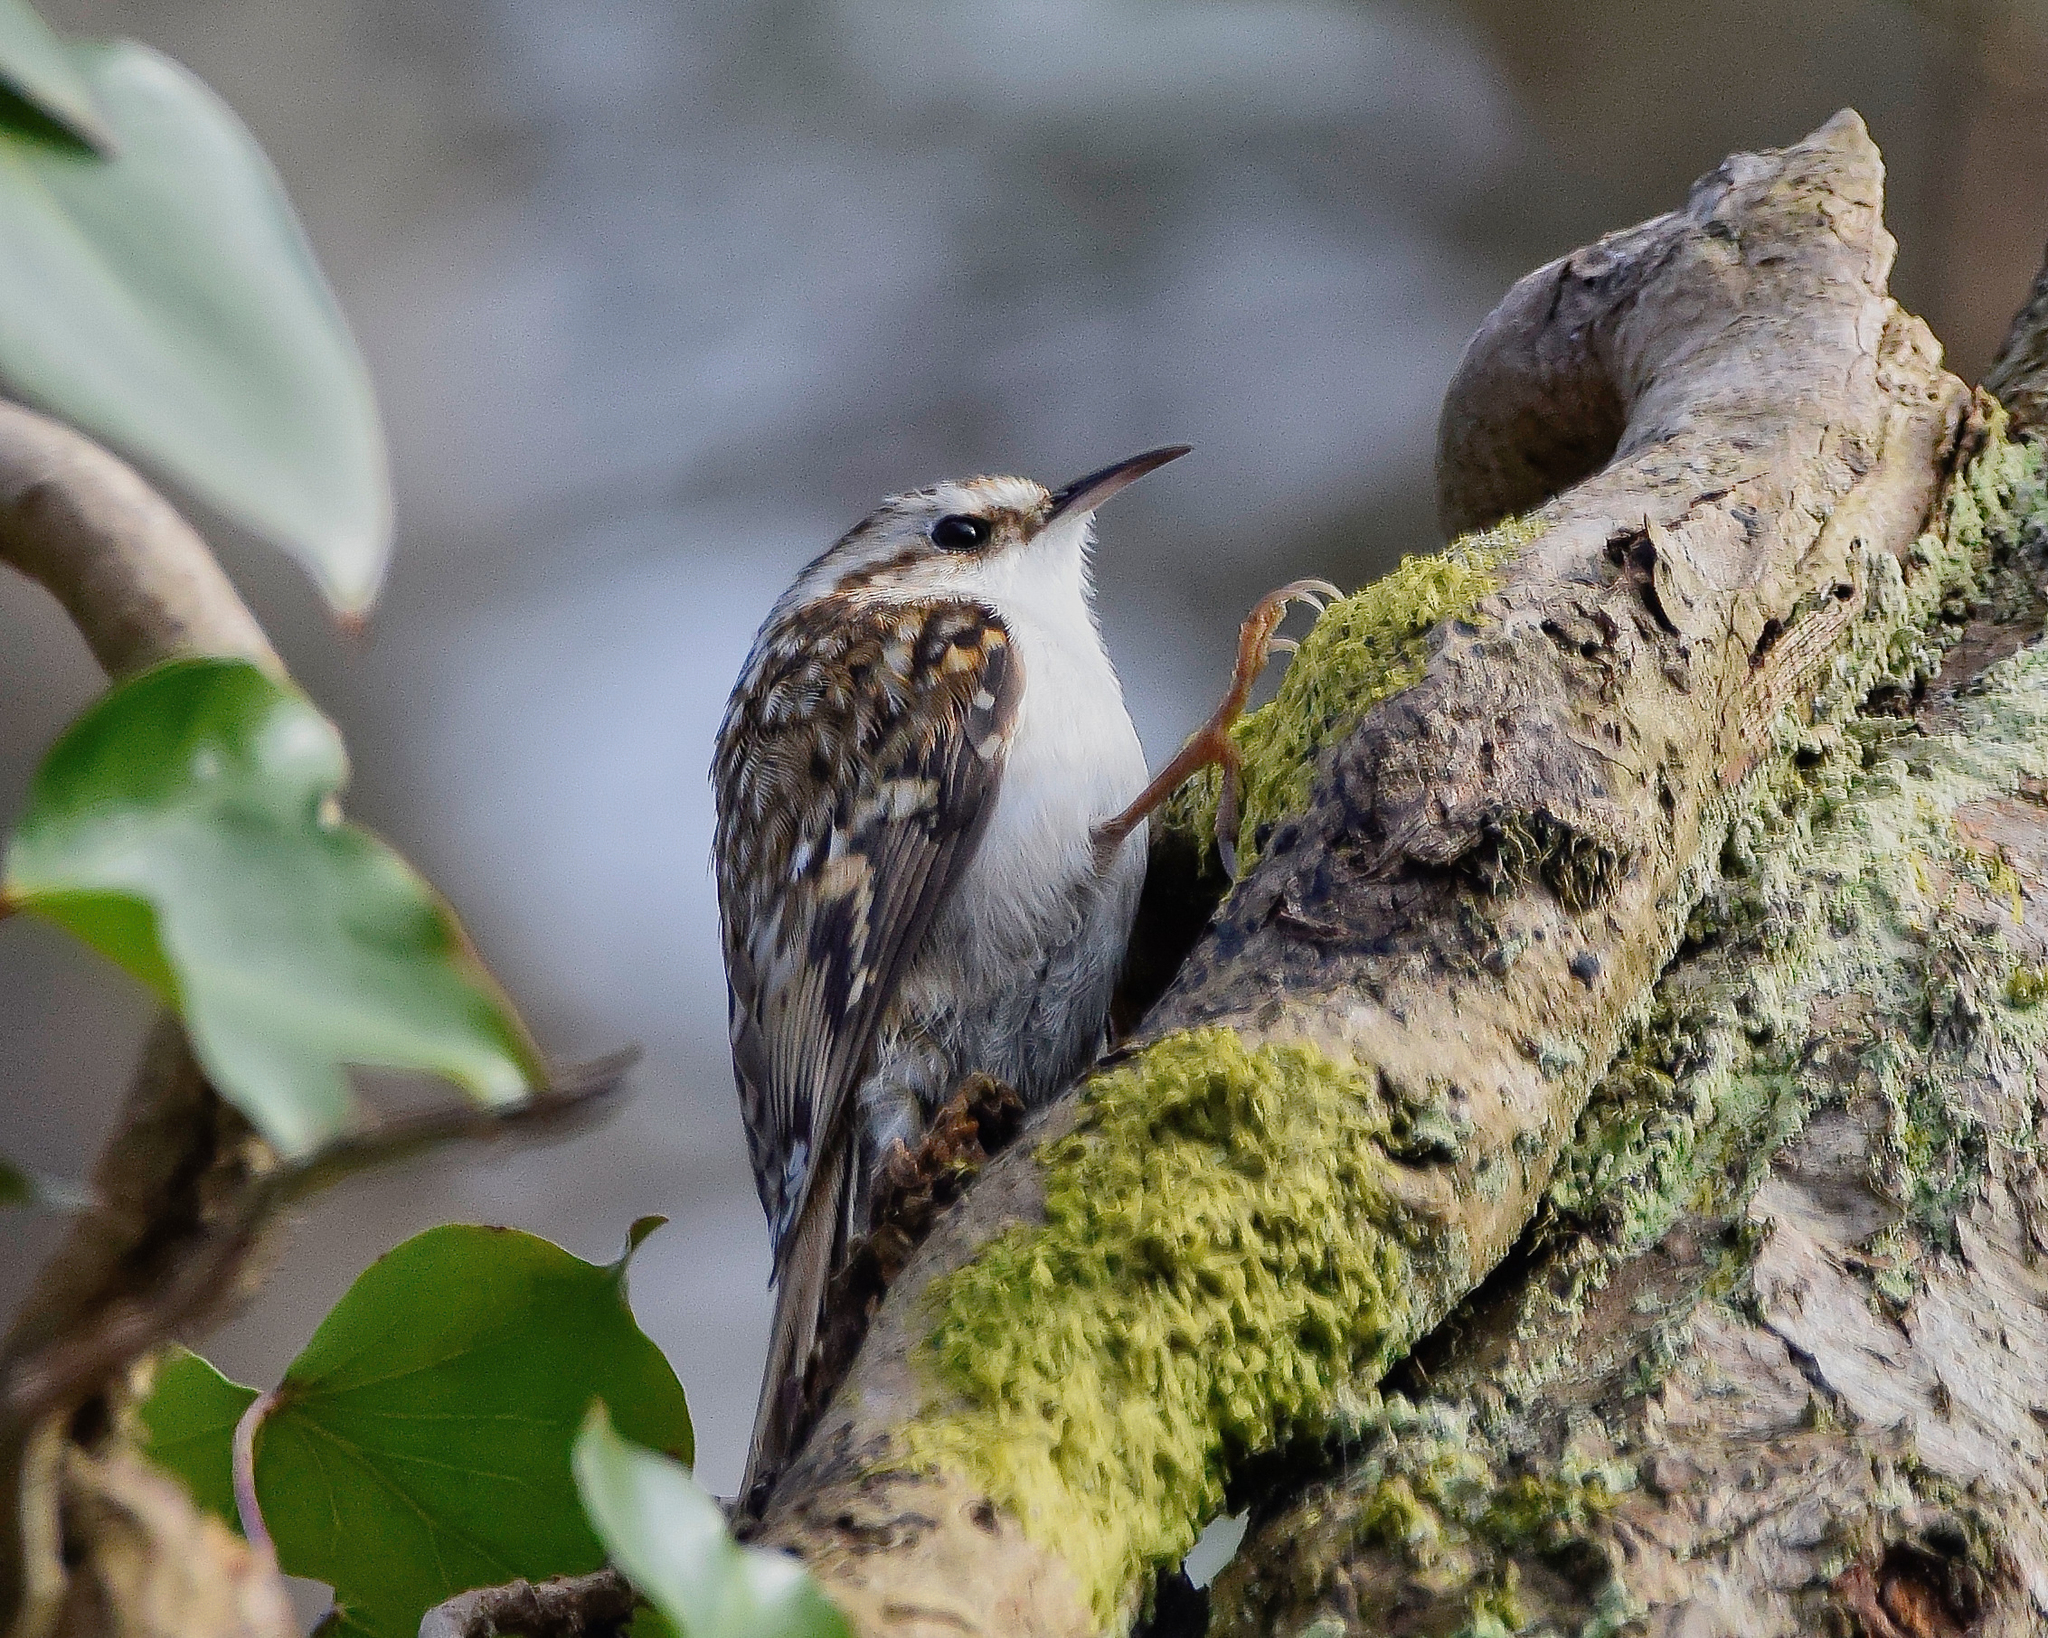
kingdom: Animalia
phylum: Chordata
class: Aves
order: Passeriformes
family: Certhiidae
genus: Certhia
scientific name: Certhia familiaris
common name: Eurasian treecreeper
